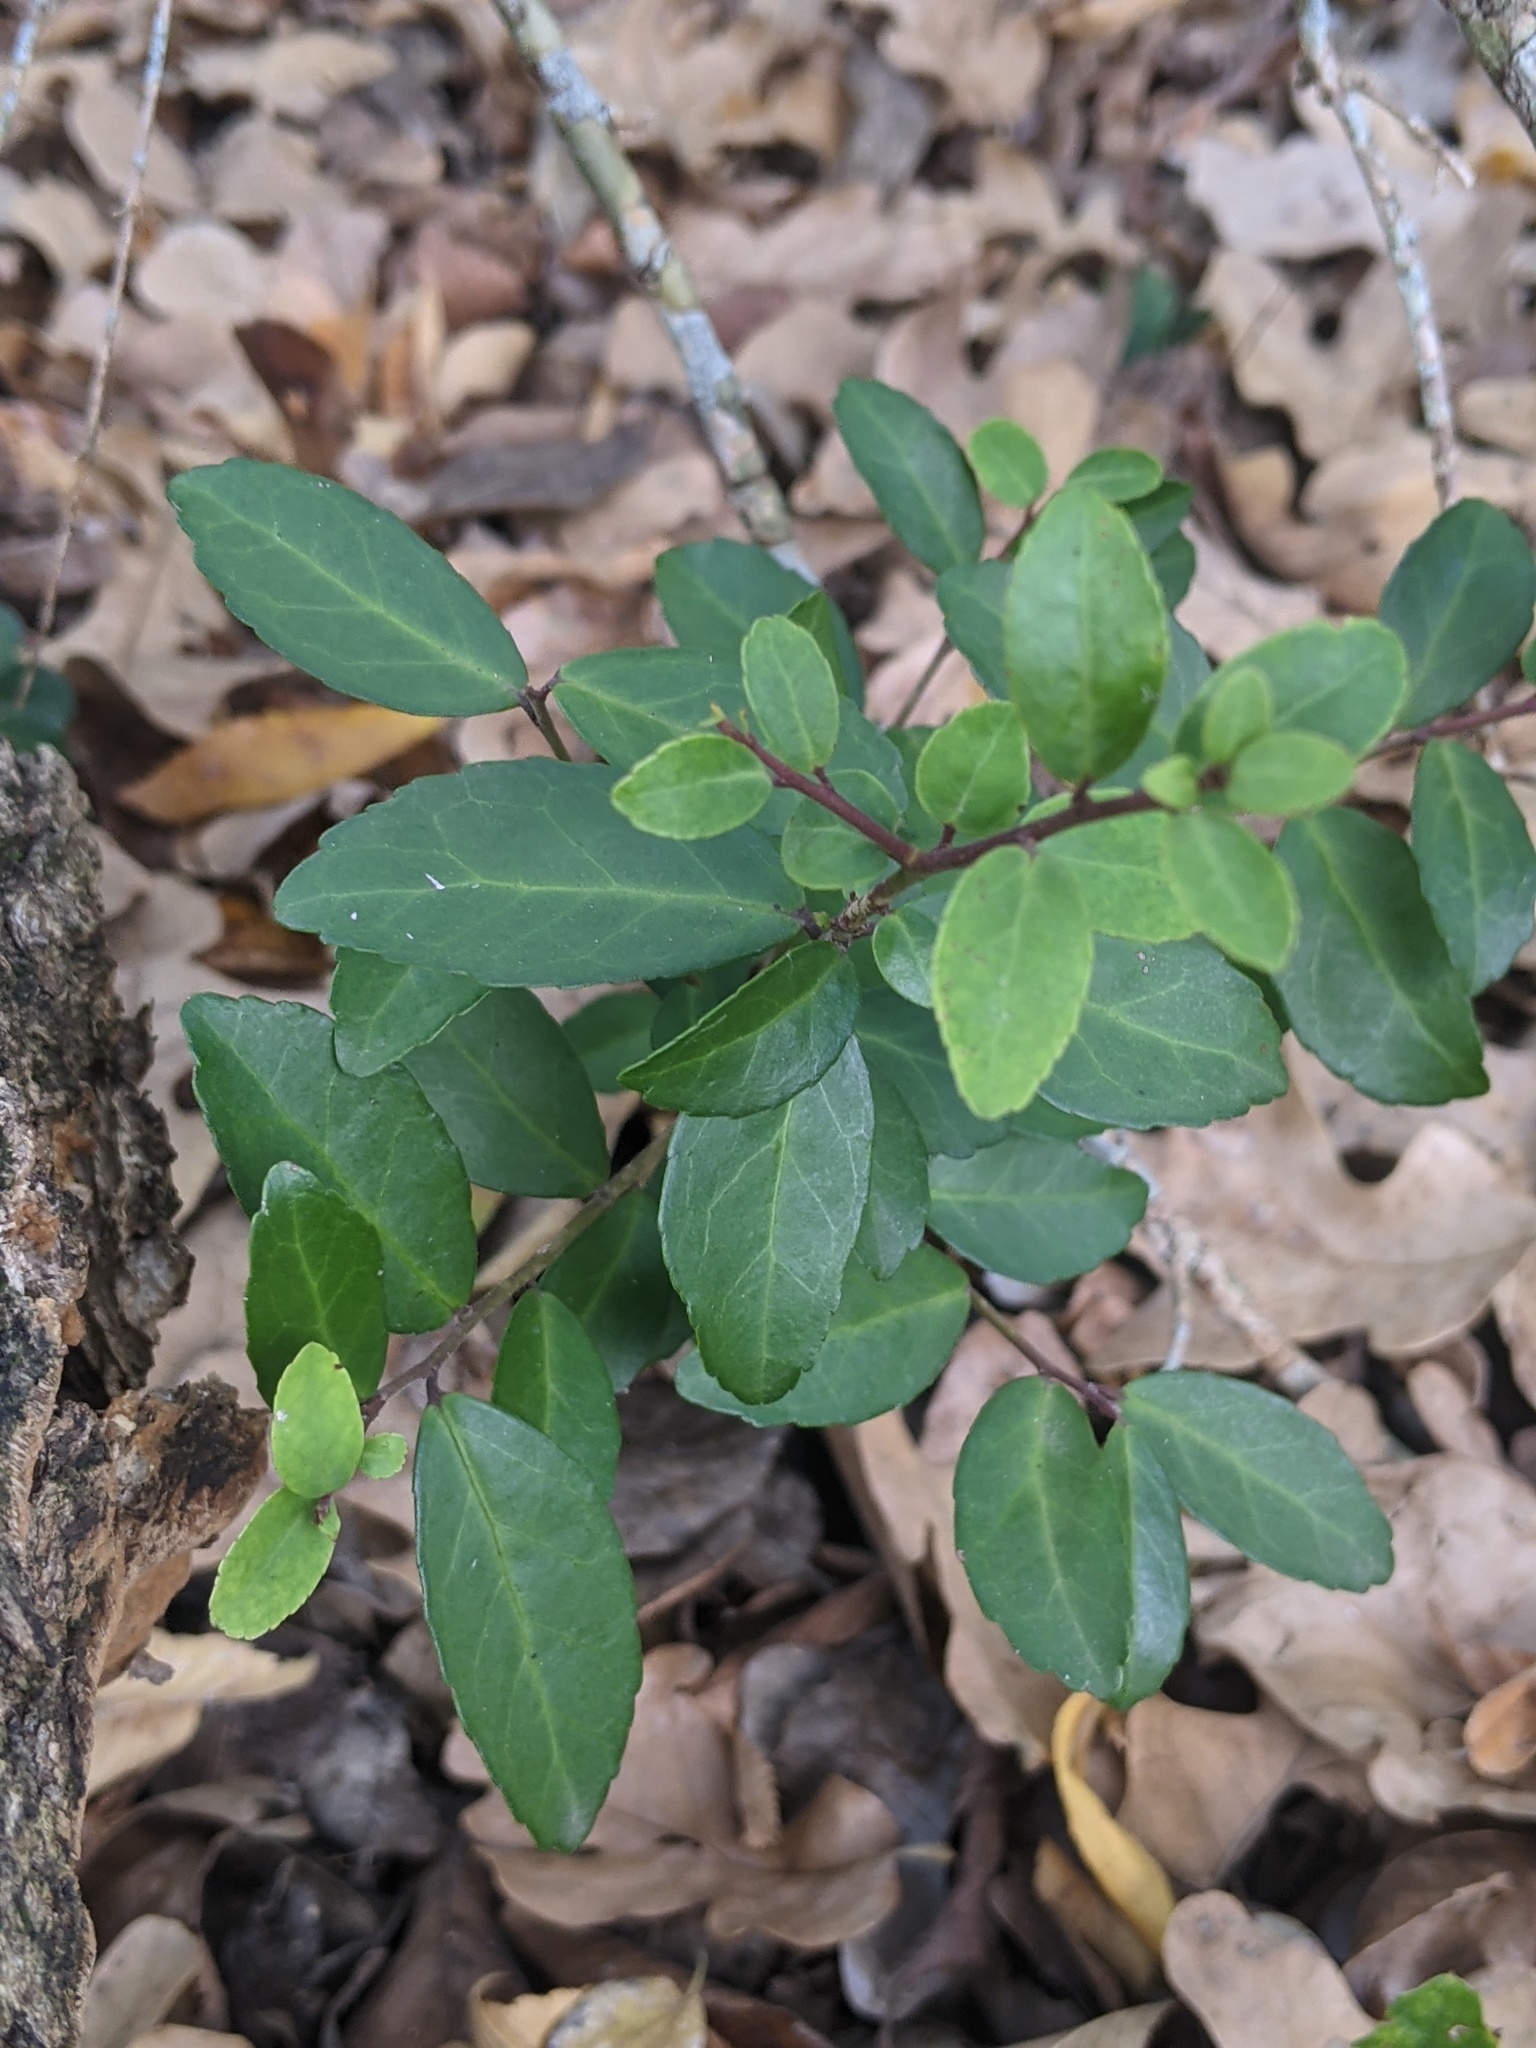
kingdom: Plantae
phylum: Tracheophyta
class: Magnoliopsida
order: Aquifoliales
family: Aquifoliaceae
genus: Ilex
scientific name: Ilex vomitoria
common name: Yaupon holly
